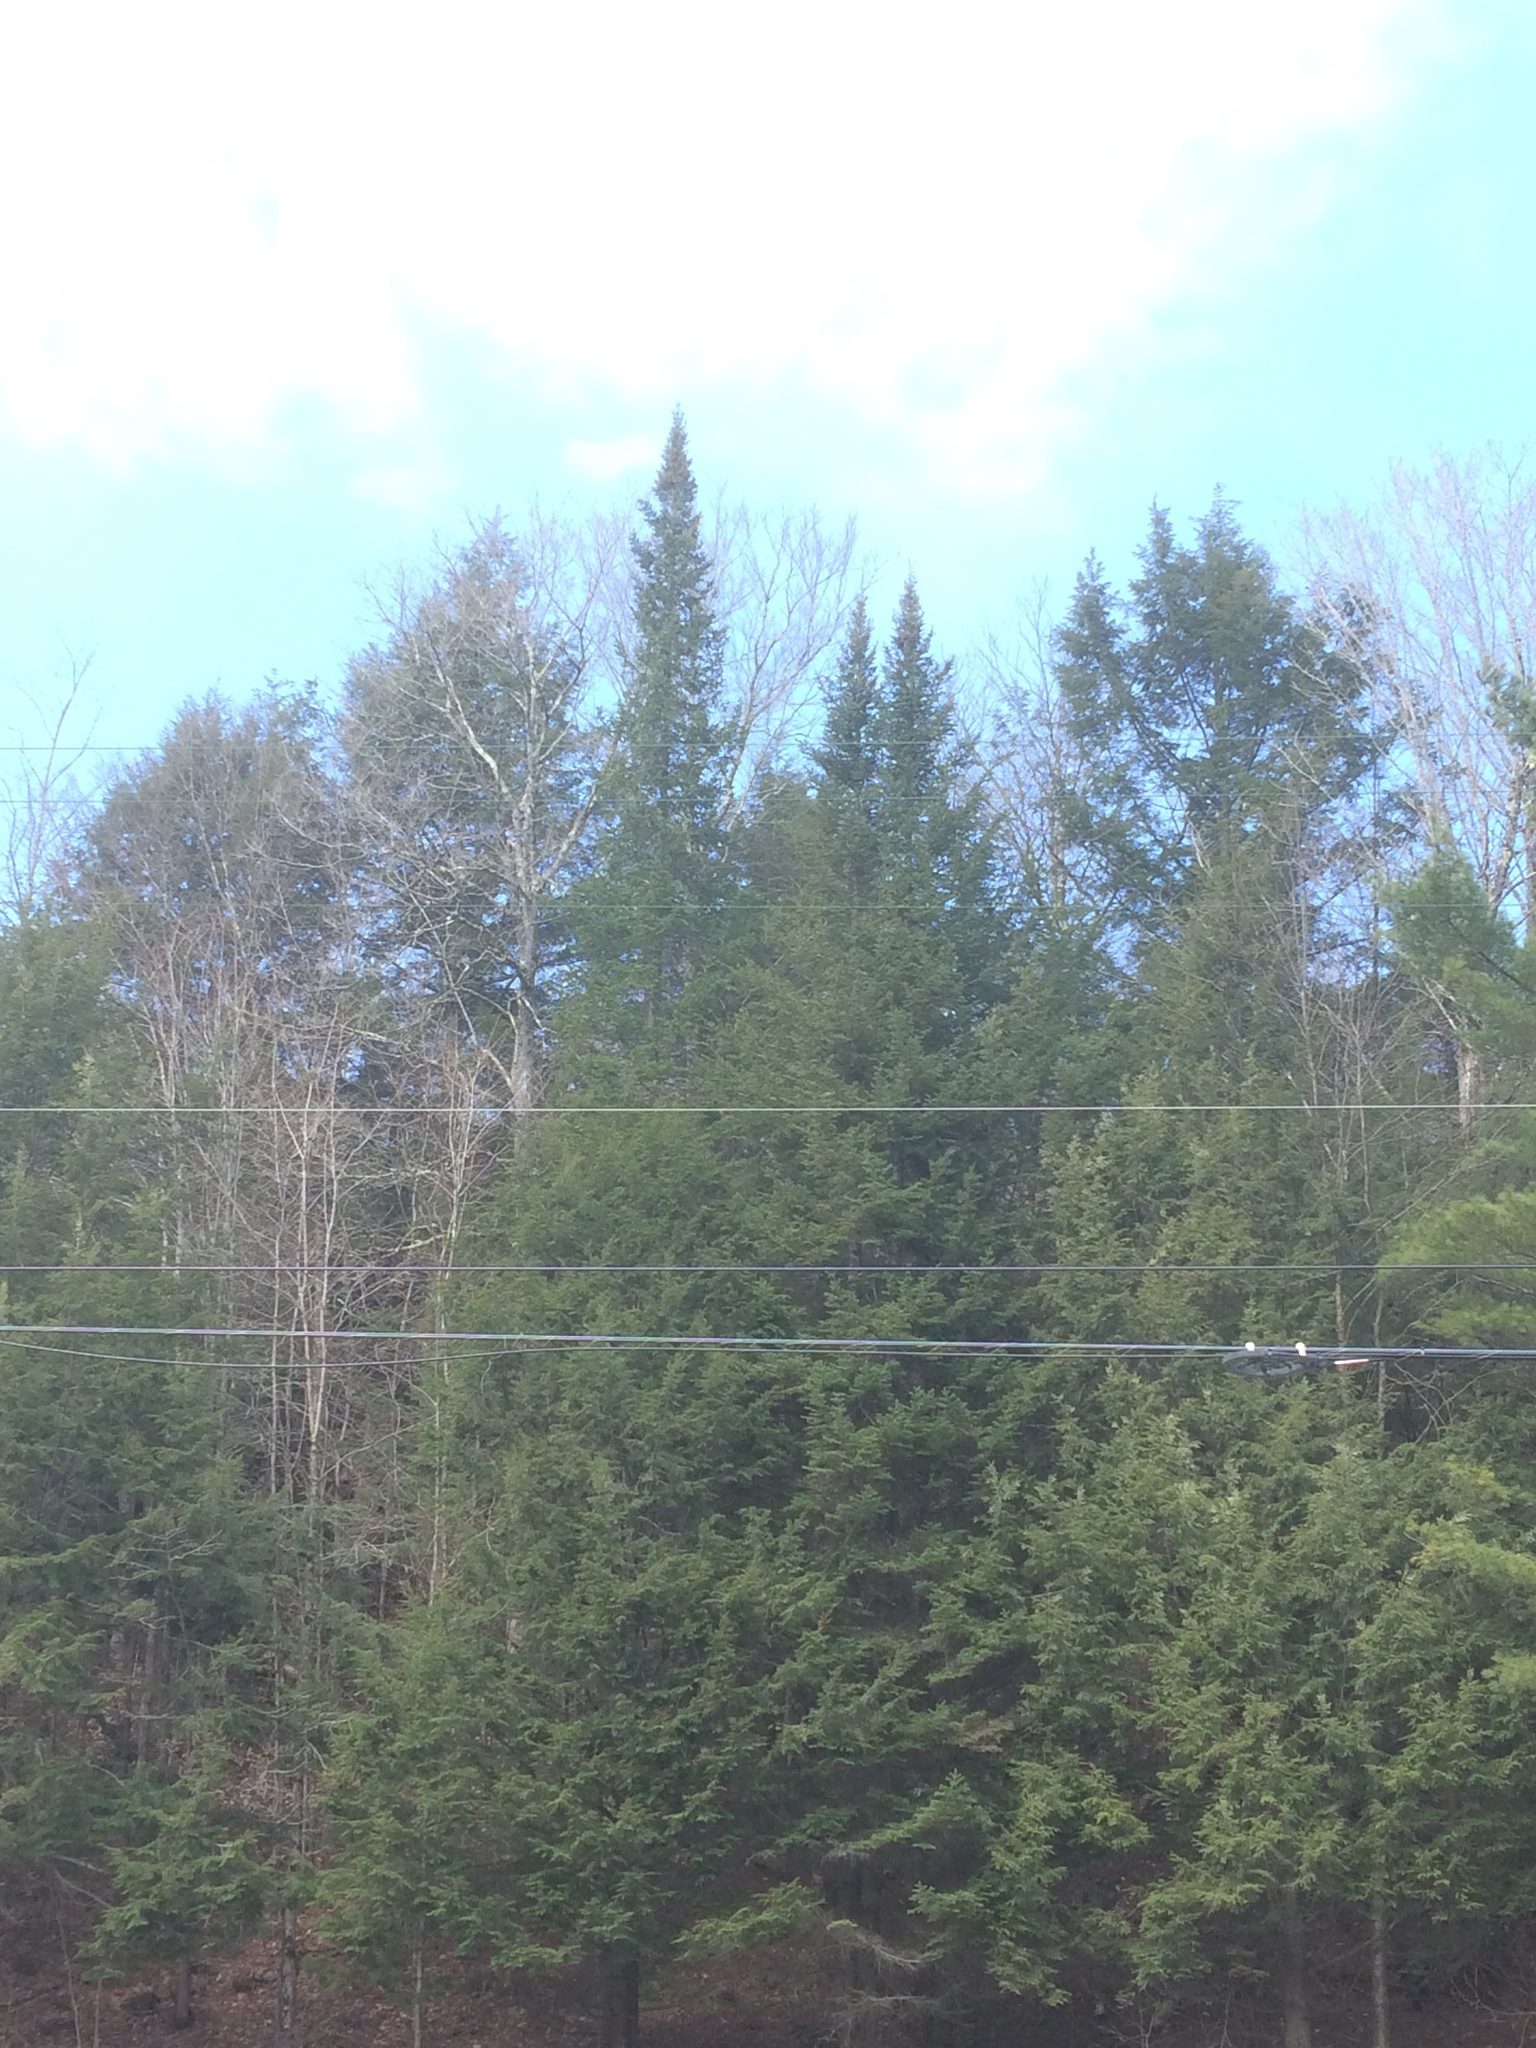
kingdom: Plantae
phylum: Tracheophyta
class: Pinopsida
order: Pinales
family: Pinaceae
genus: Abies
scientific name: Abies balsamea
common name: Balsam fir
